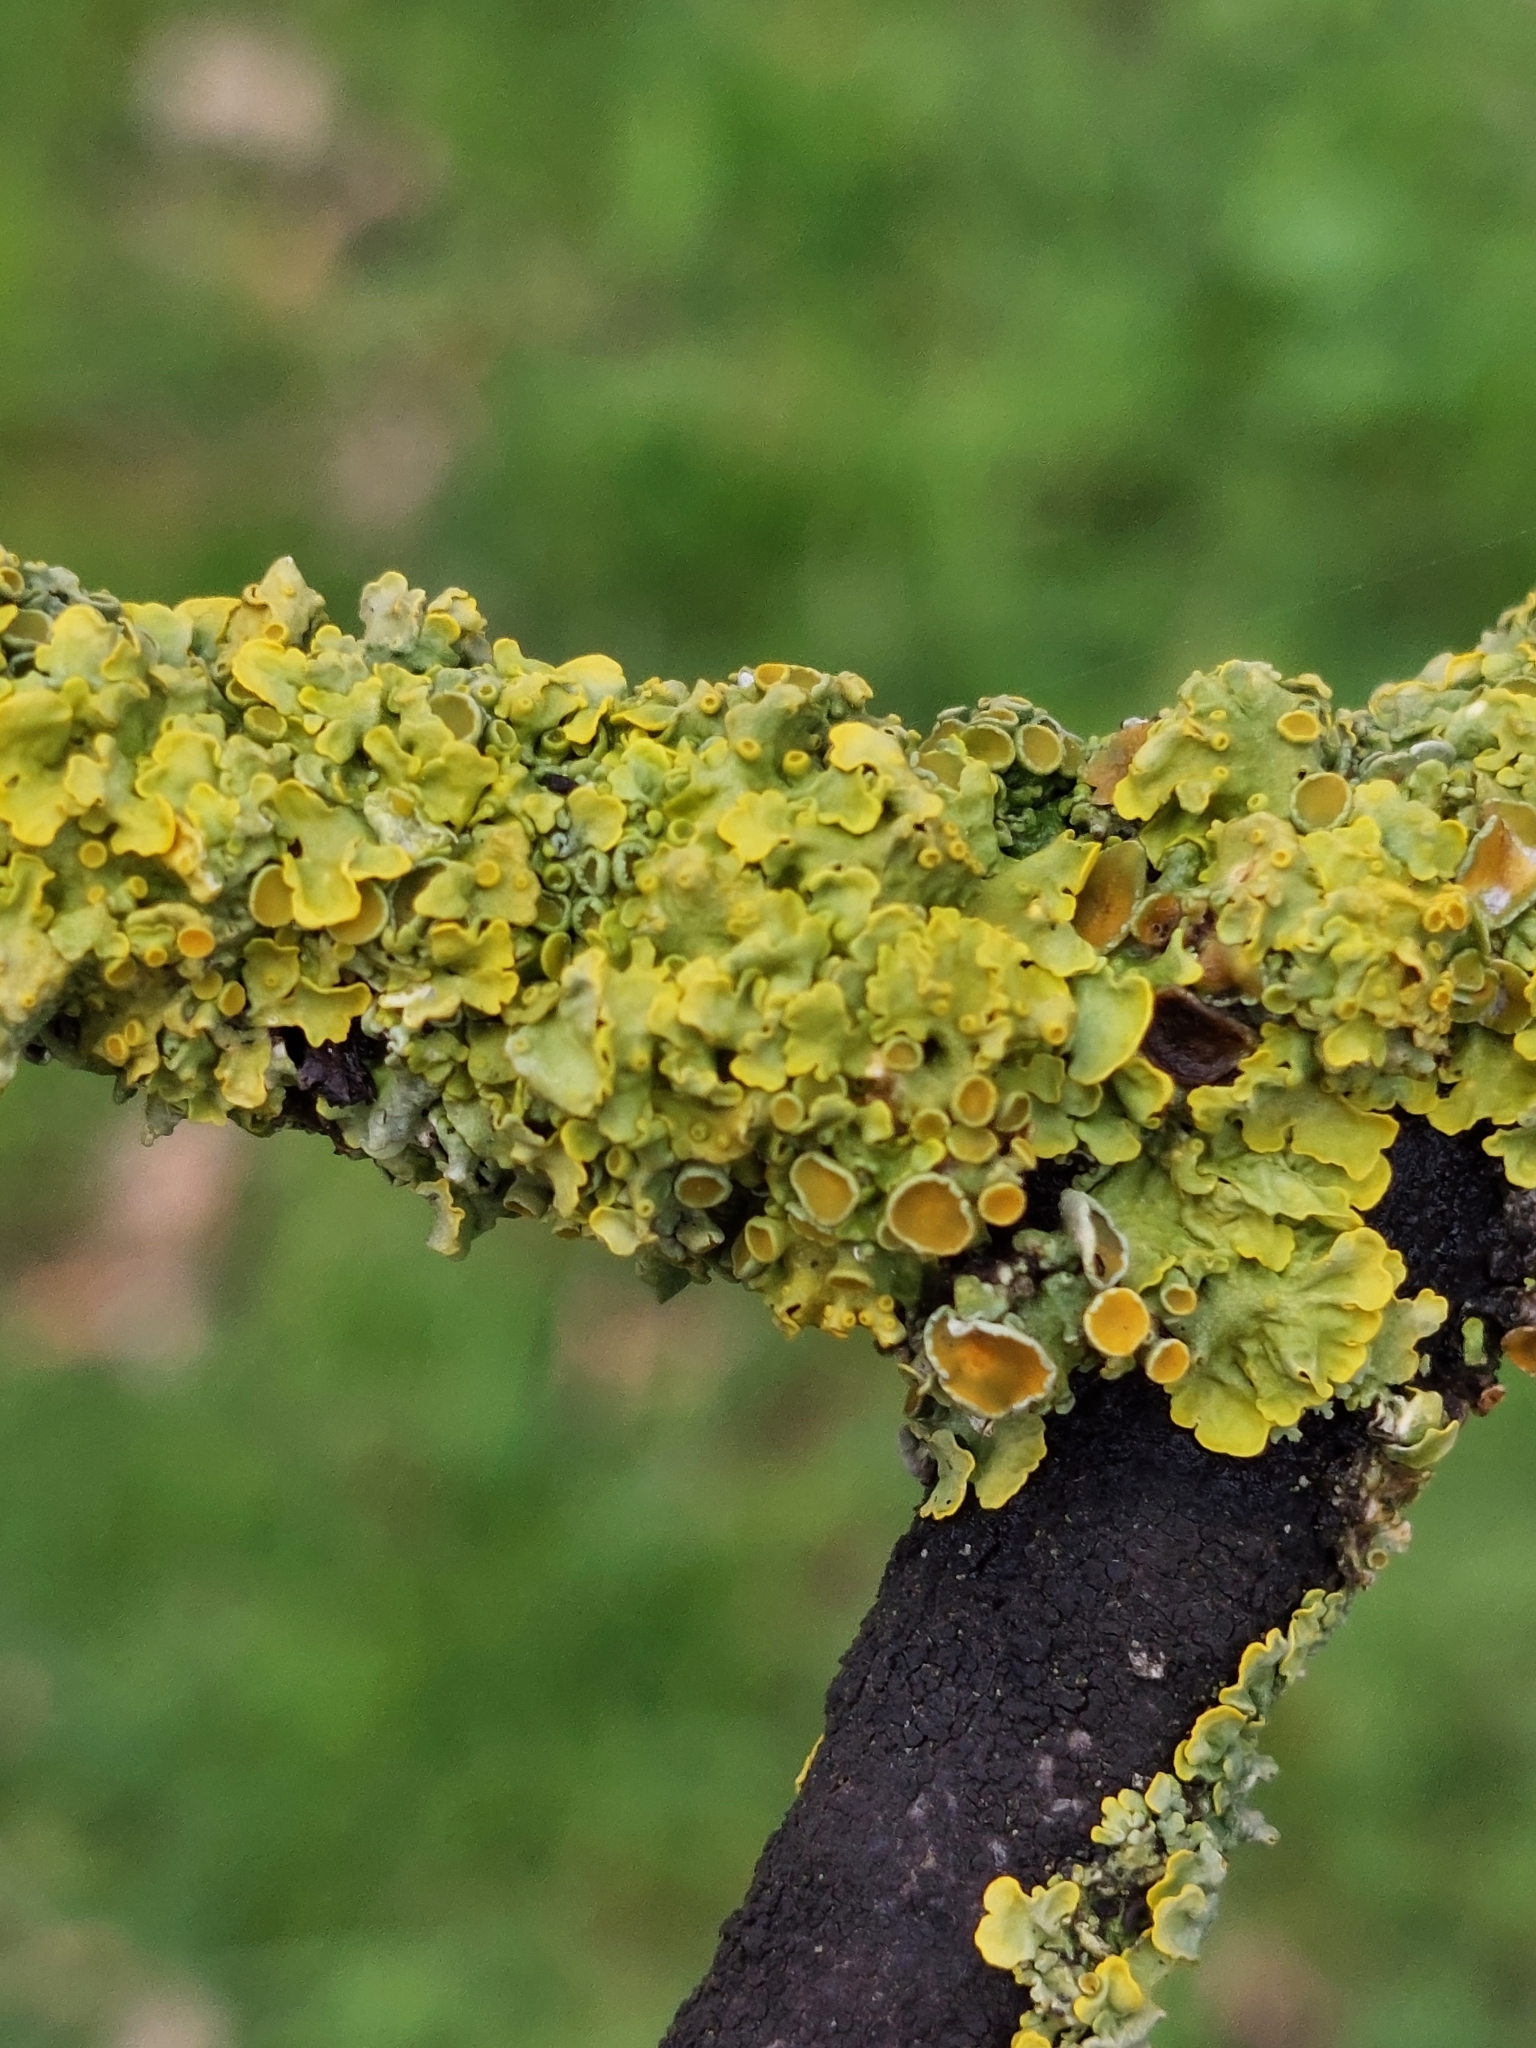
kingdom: Fungi
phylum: Ascomycota
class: Lecanoromycetes
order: Teloschistales
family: Teloschistaceae
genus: Xanthoria
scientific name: Xanthoria parietina
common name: Common orange lichen
